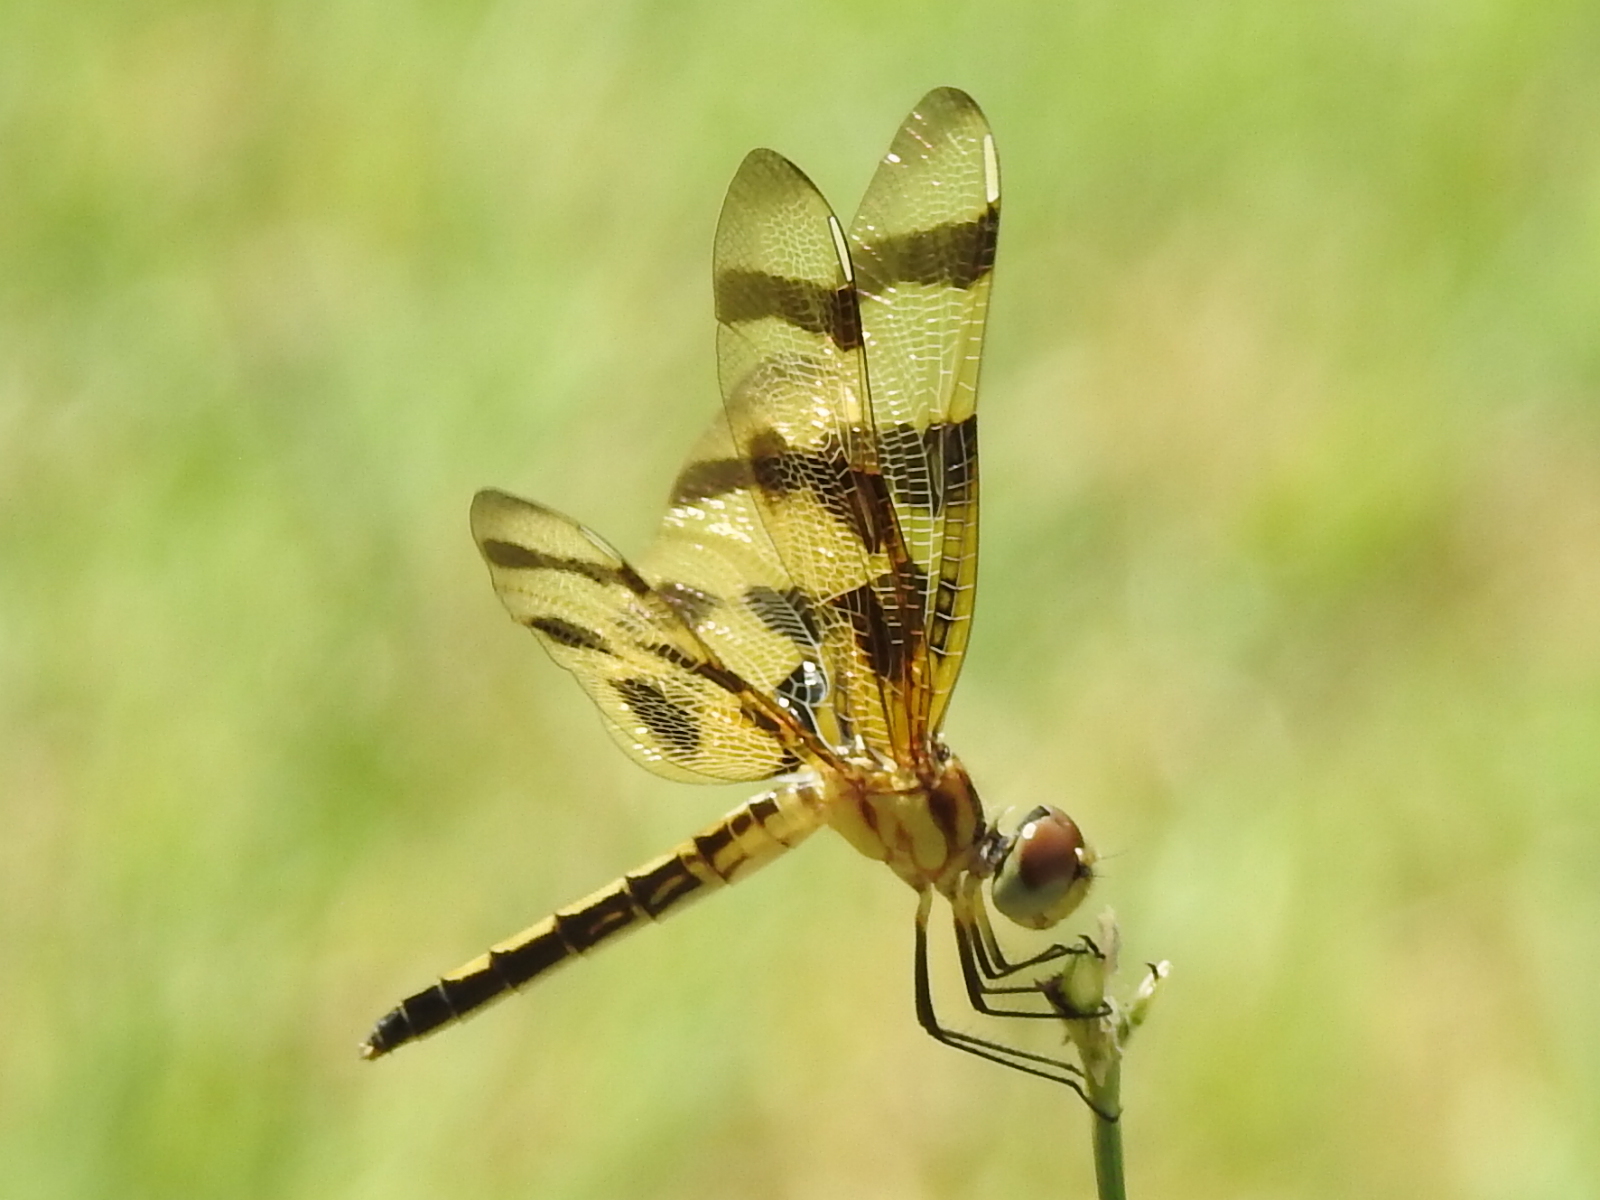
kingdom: Animalia
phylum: Arthropoda
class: Insecta
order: Odonata
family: Libellulidae
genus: Celithemis
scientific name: Celithemis eponina
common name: Halloween pennant
